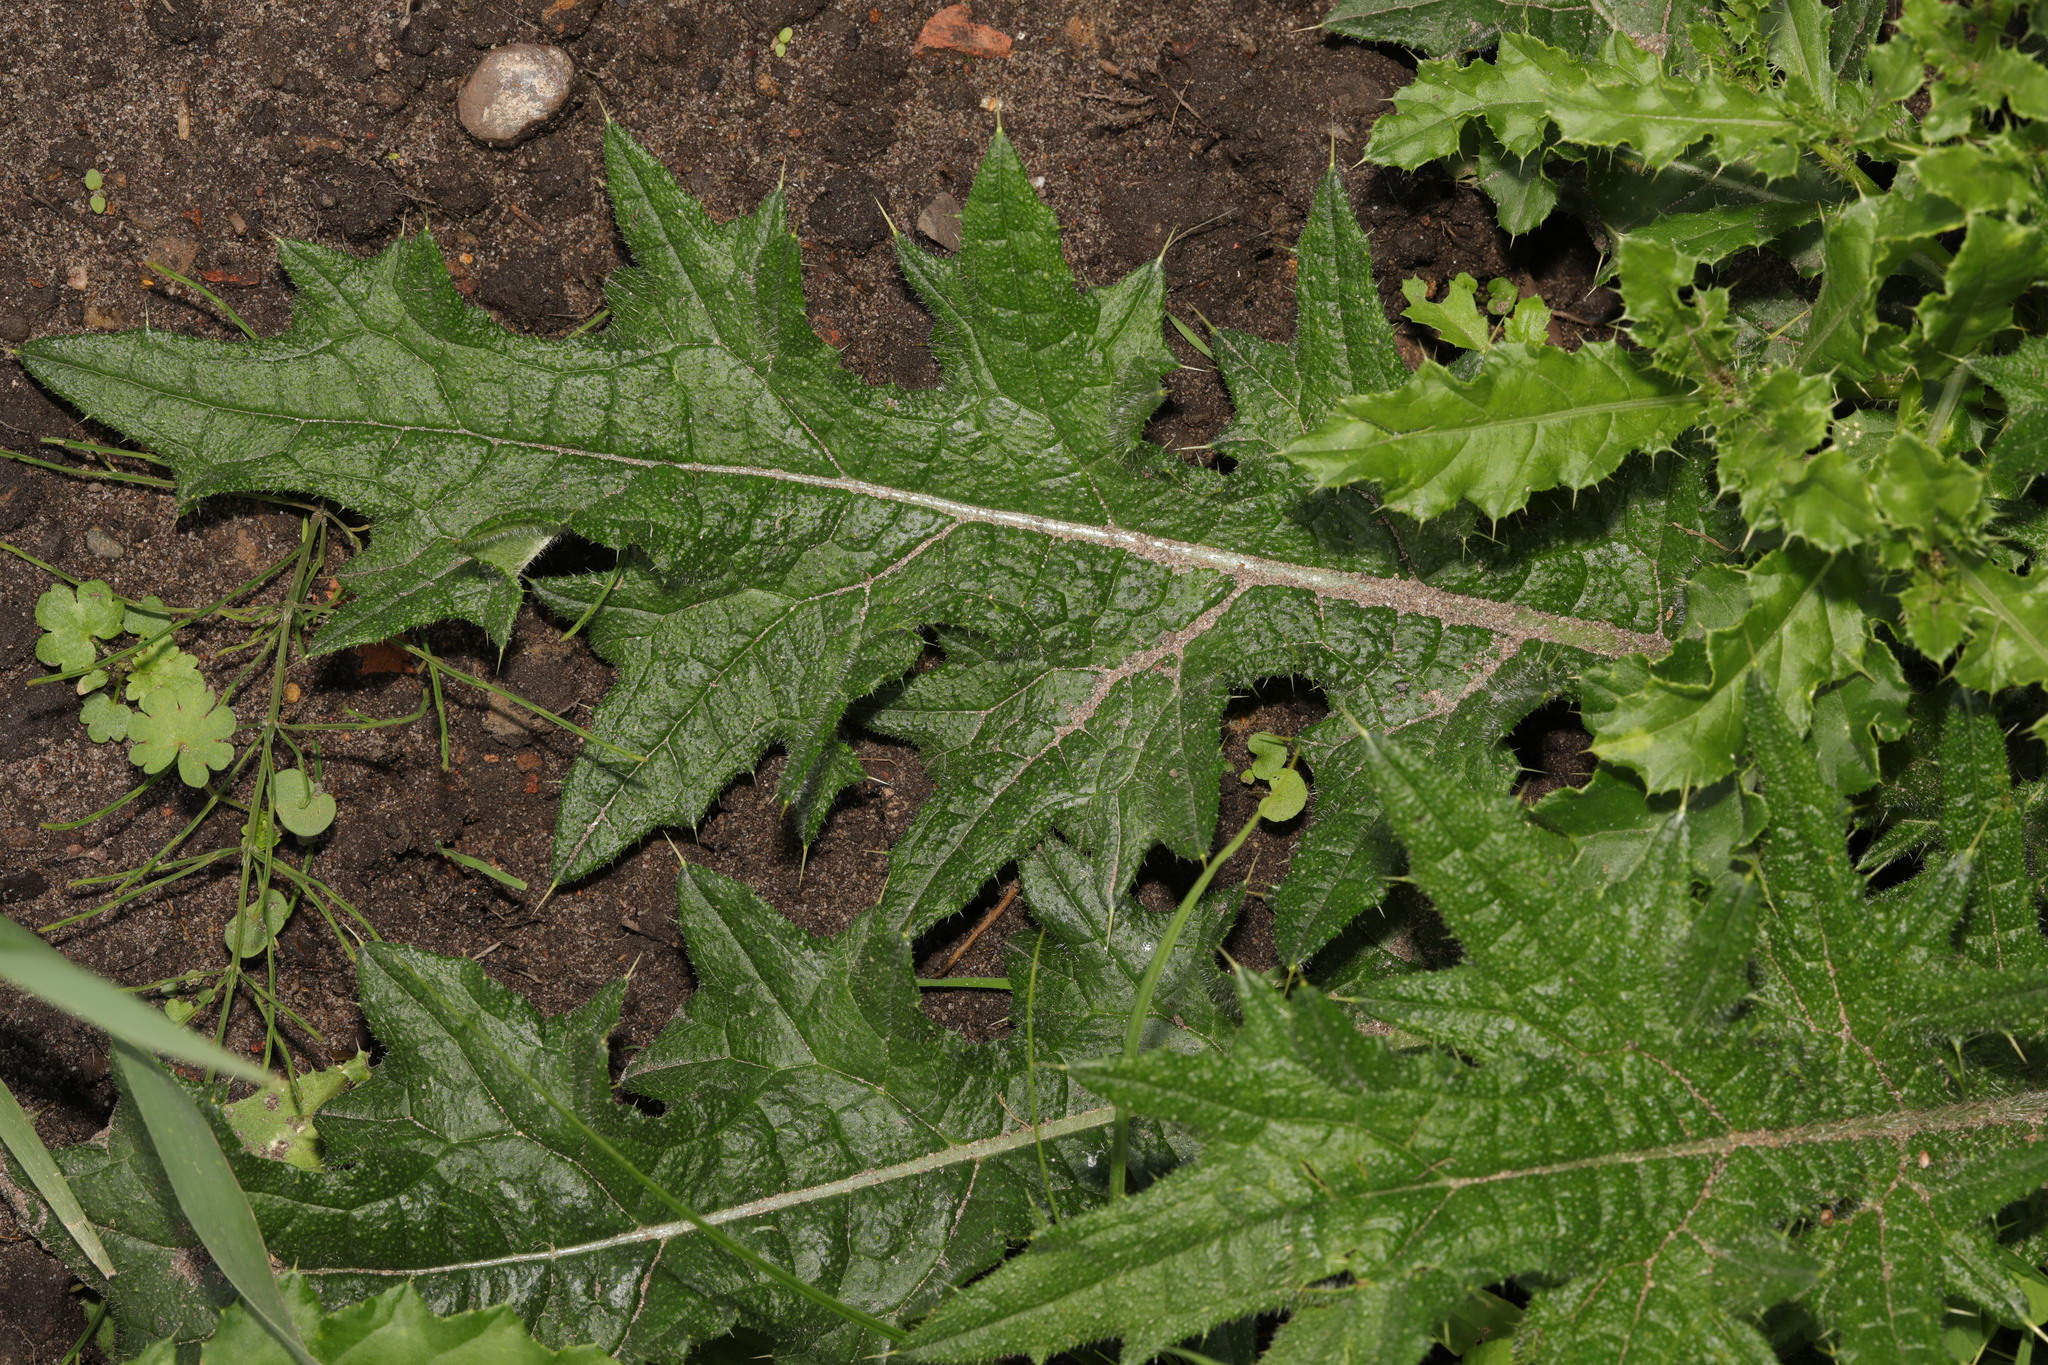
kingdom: Plantae
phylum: Tracheophyta
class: Magnoliopsida
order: Asterales
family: Asteraceae
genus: Cirsium
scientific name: Cirsium vulgare
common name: Bull thistle
